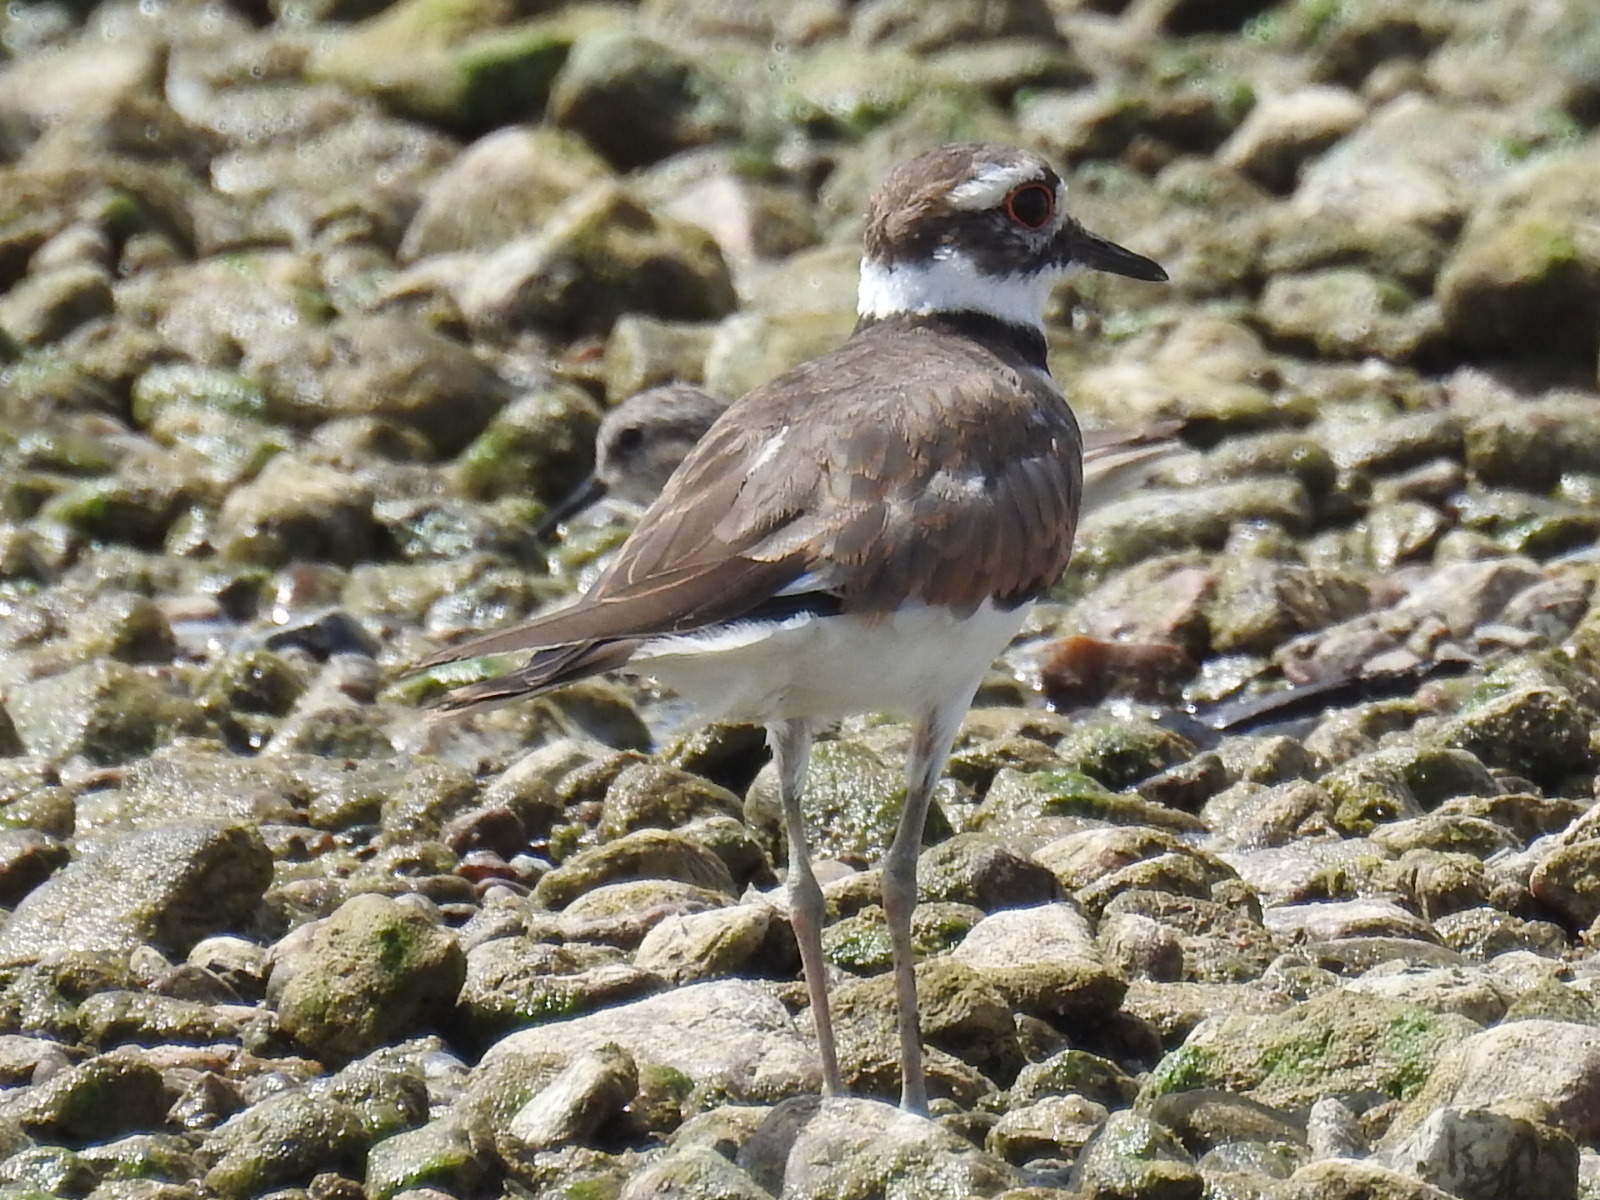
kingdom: Animalia
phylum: Chordata
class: Aves
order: Charadriiformes
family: Charadriidae
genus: Charadrius
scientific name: Charadrius vociferus
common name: Killdeer
